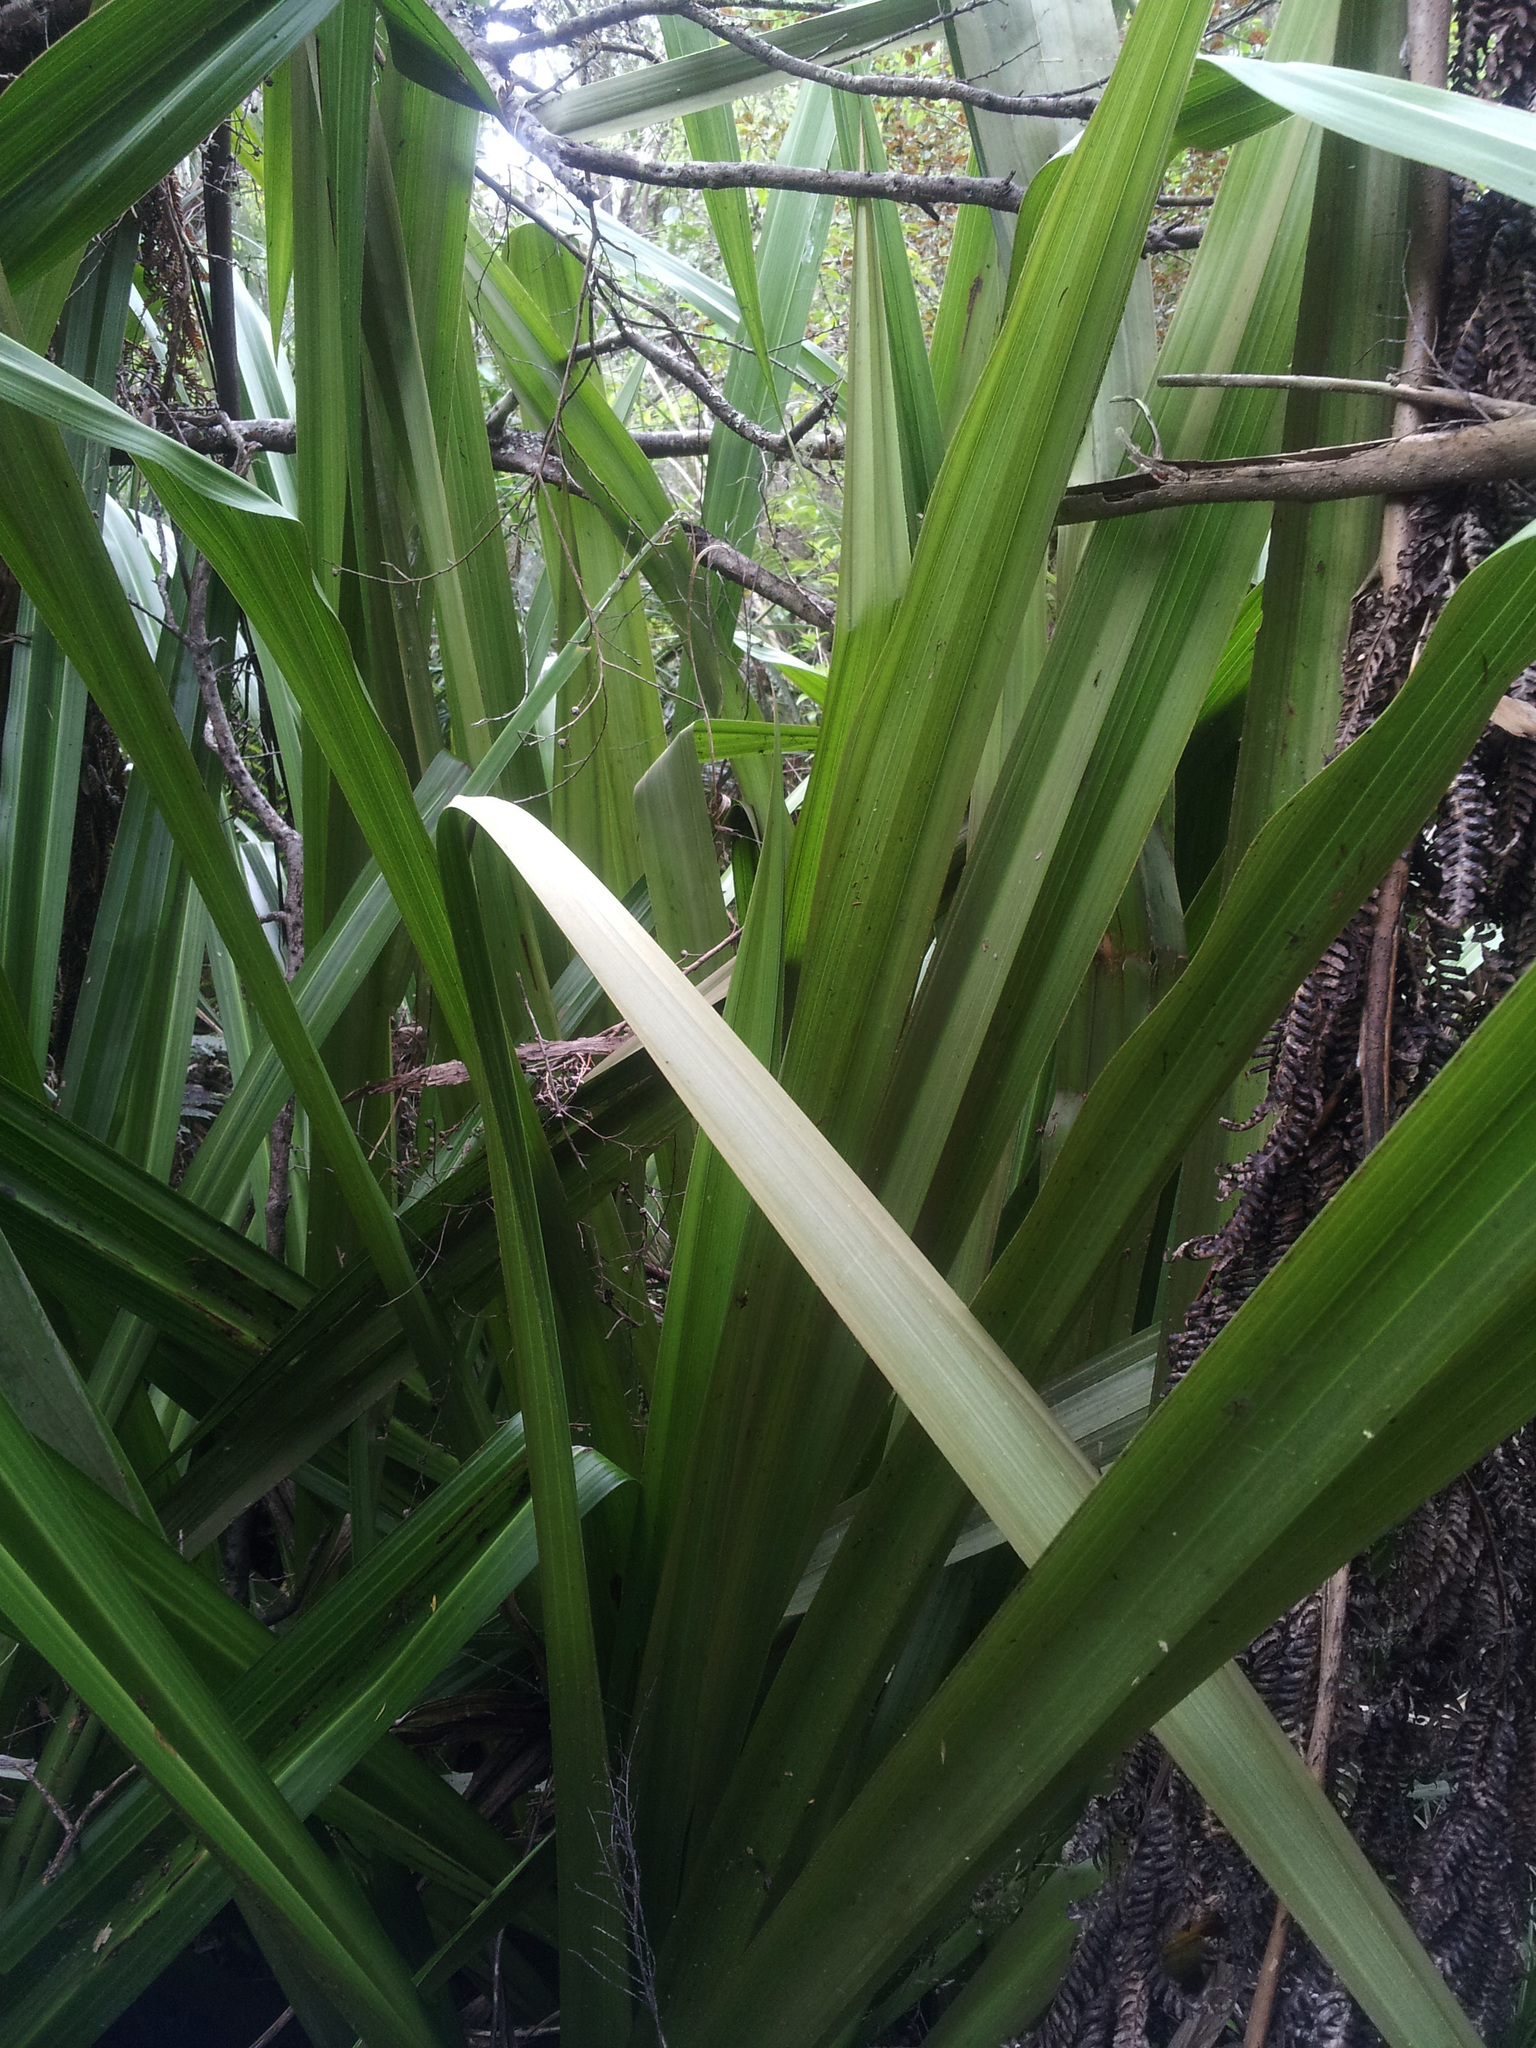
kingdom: Plantae
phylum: Tracheophyta
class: Liliopsida
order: Asparagales
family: Asteliaceae
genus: Astelia
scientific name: Astelia grandis
